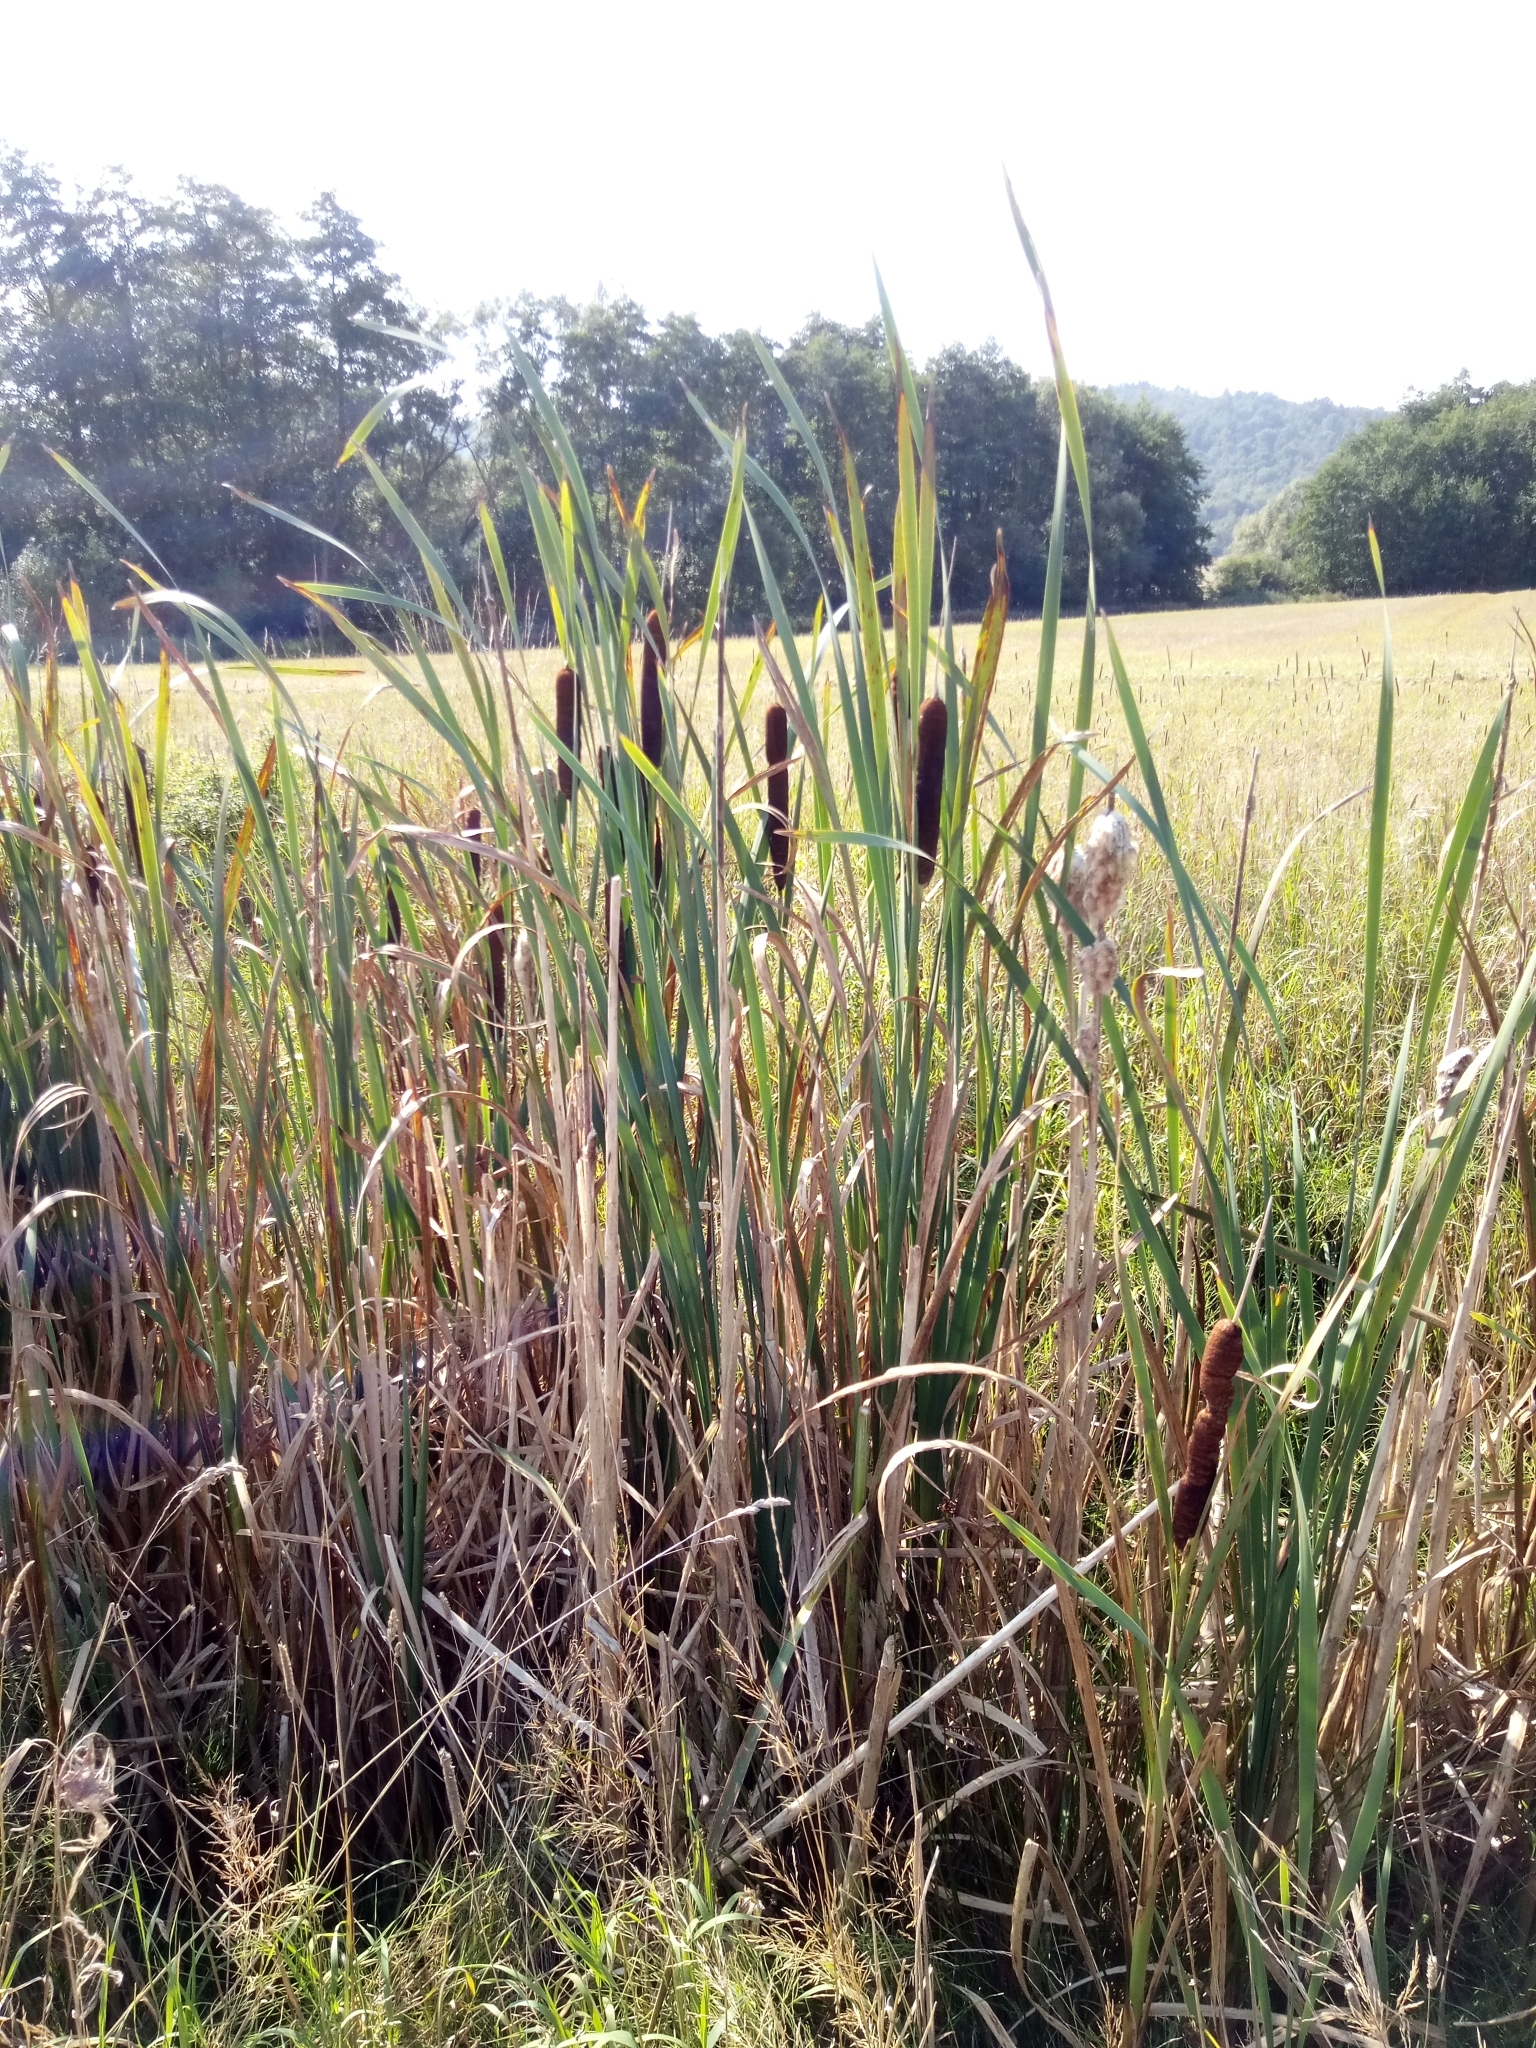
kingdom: Plantae
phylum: Tracheophyta
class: Liliopsida
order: Poales
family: Typhaceae
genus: Typha
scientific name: Typha latifolia
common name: Broadleaf cattail
